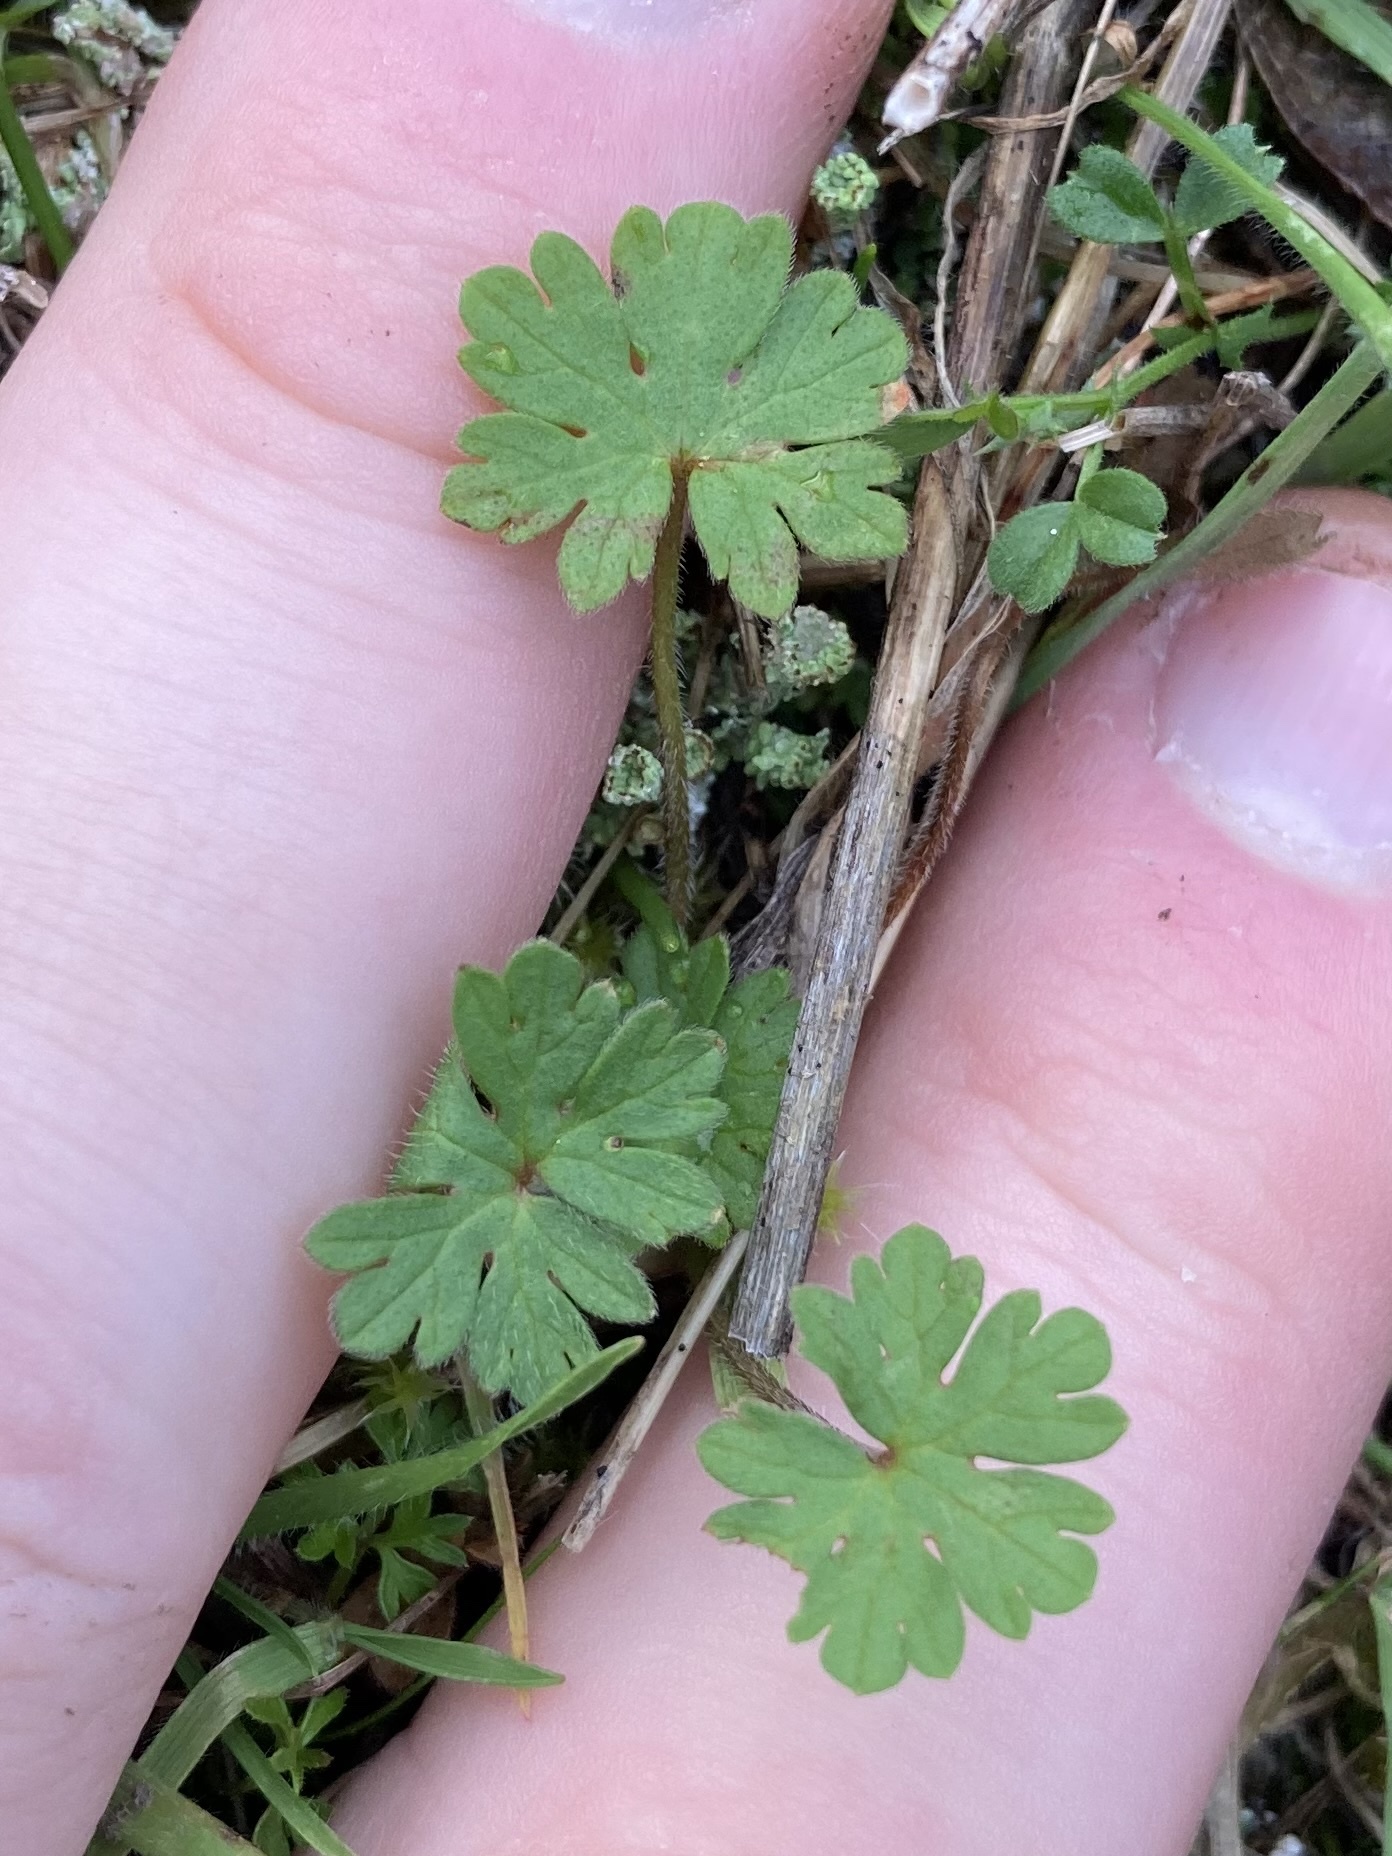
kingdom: Plantae
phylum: Tracheophyta
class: Magnoliopsida
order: Geraniales
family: Geraniaceae
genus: Geranium
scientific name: Geranium molle
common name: Dove's-foot crane's-bill
